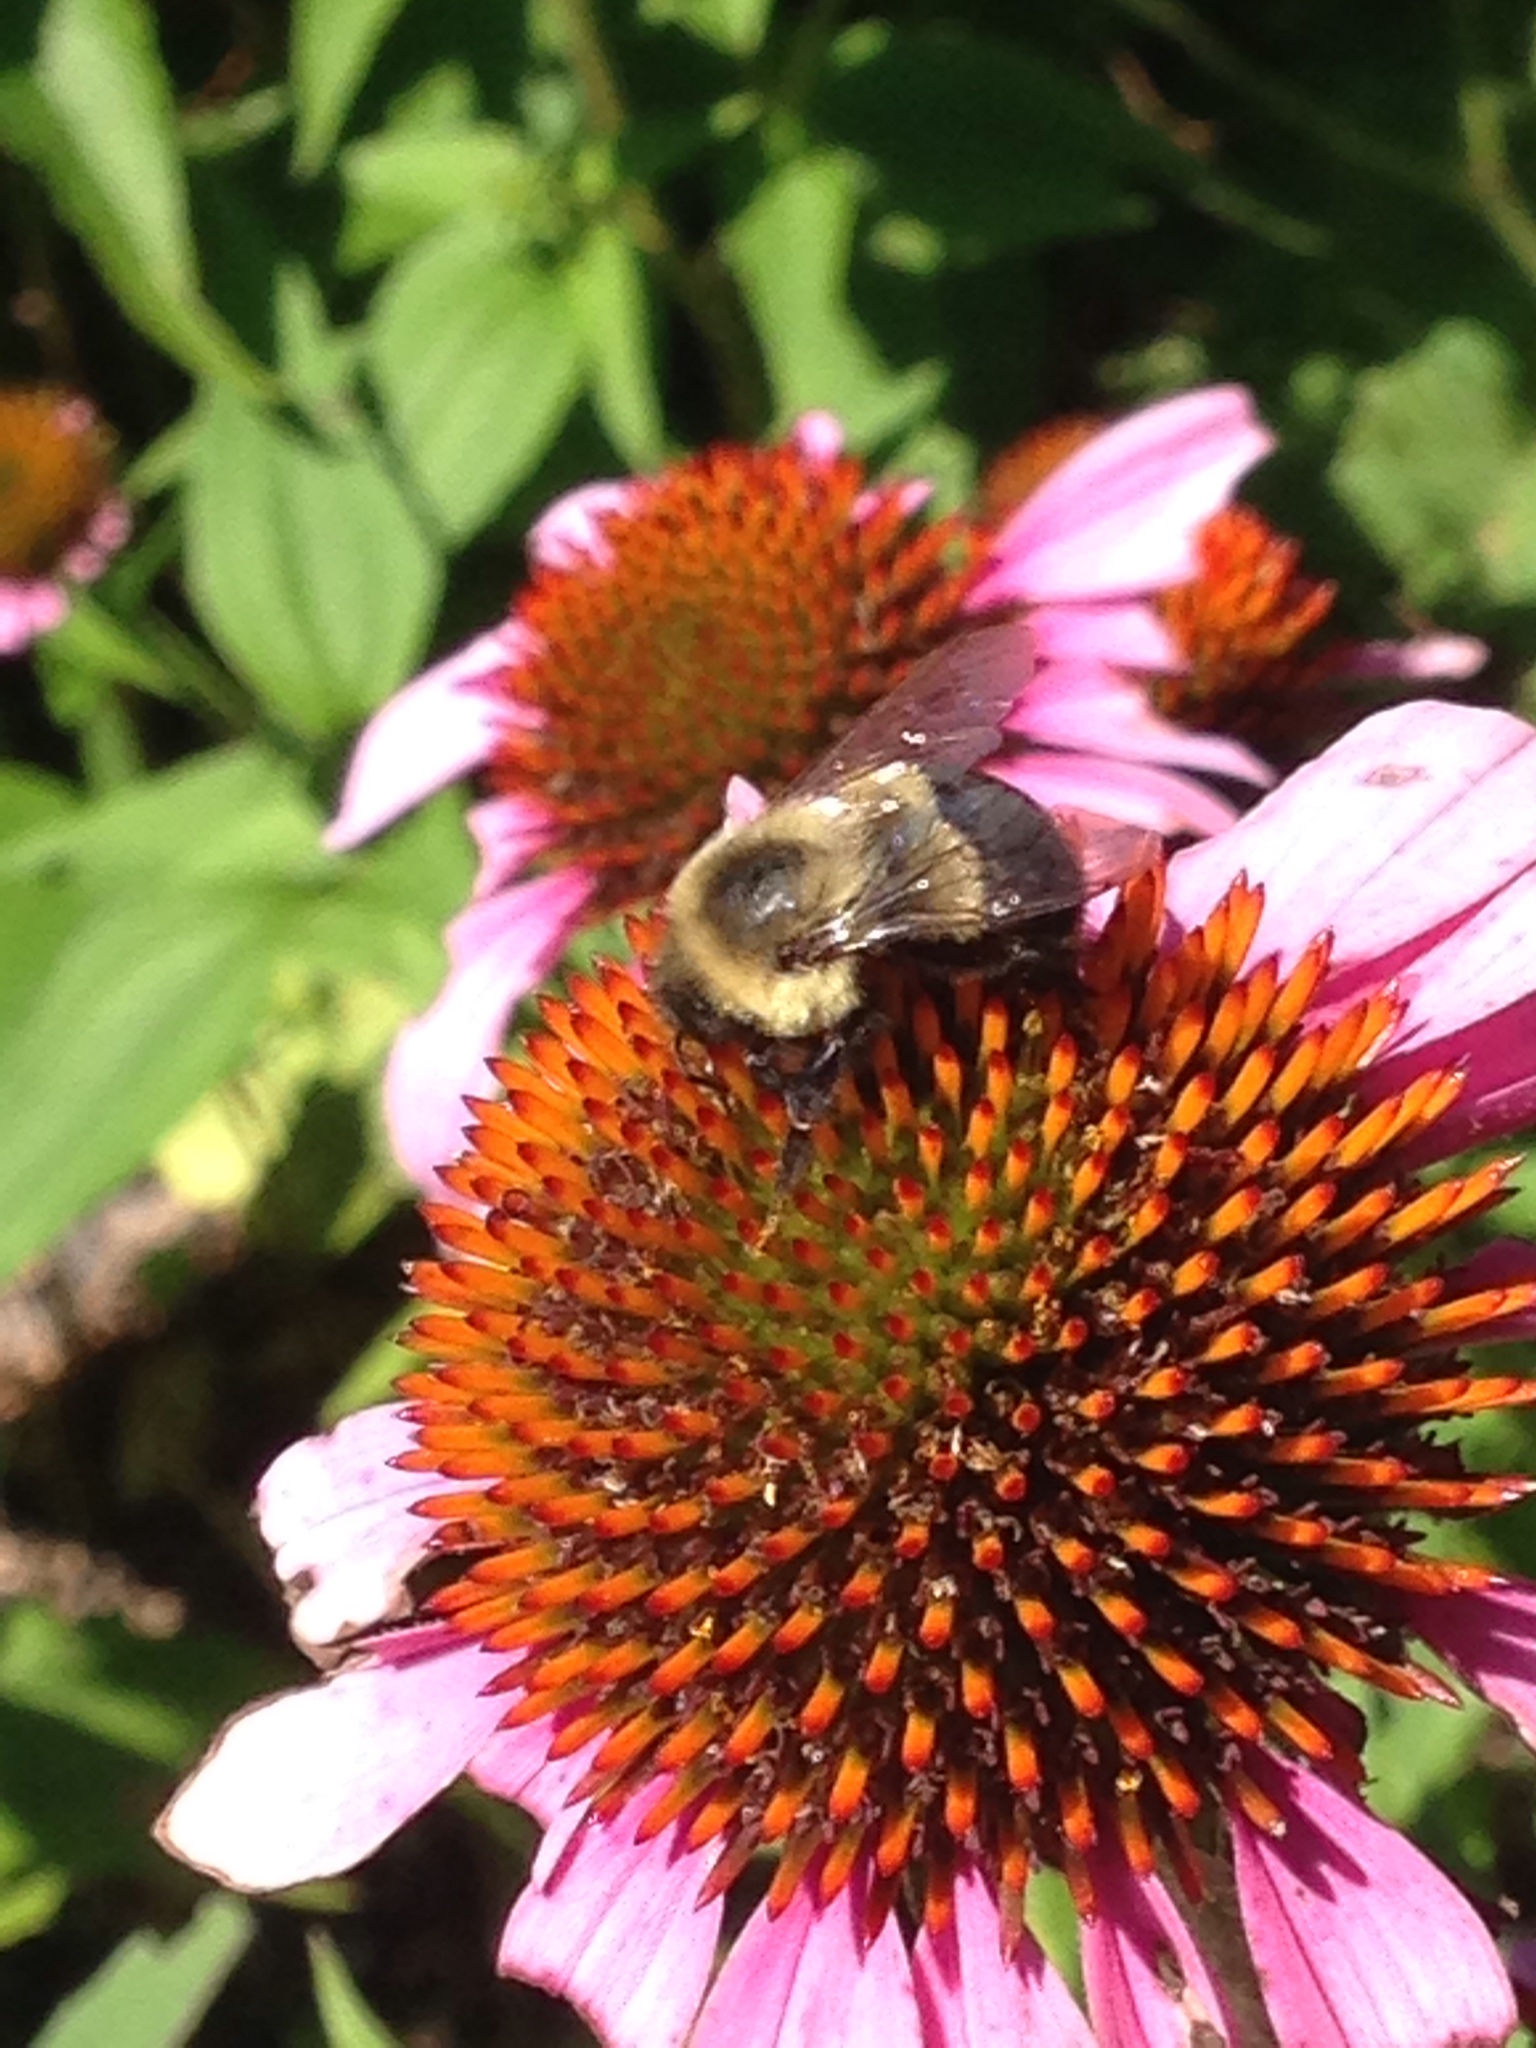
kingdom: Animalia
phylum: Arthropoda
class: Insecta
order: Hymenoptera
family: Apidae
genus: Bombus
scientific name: Bombus impatiens
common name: Common eastern bumble bee
